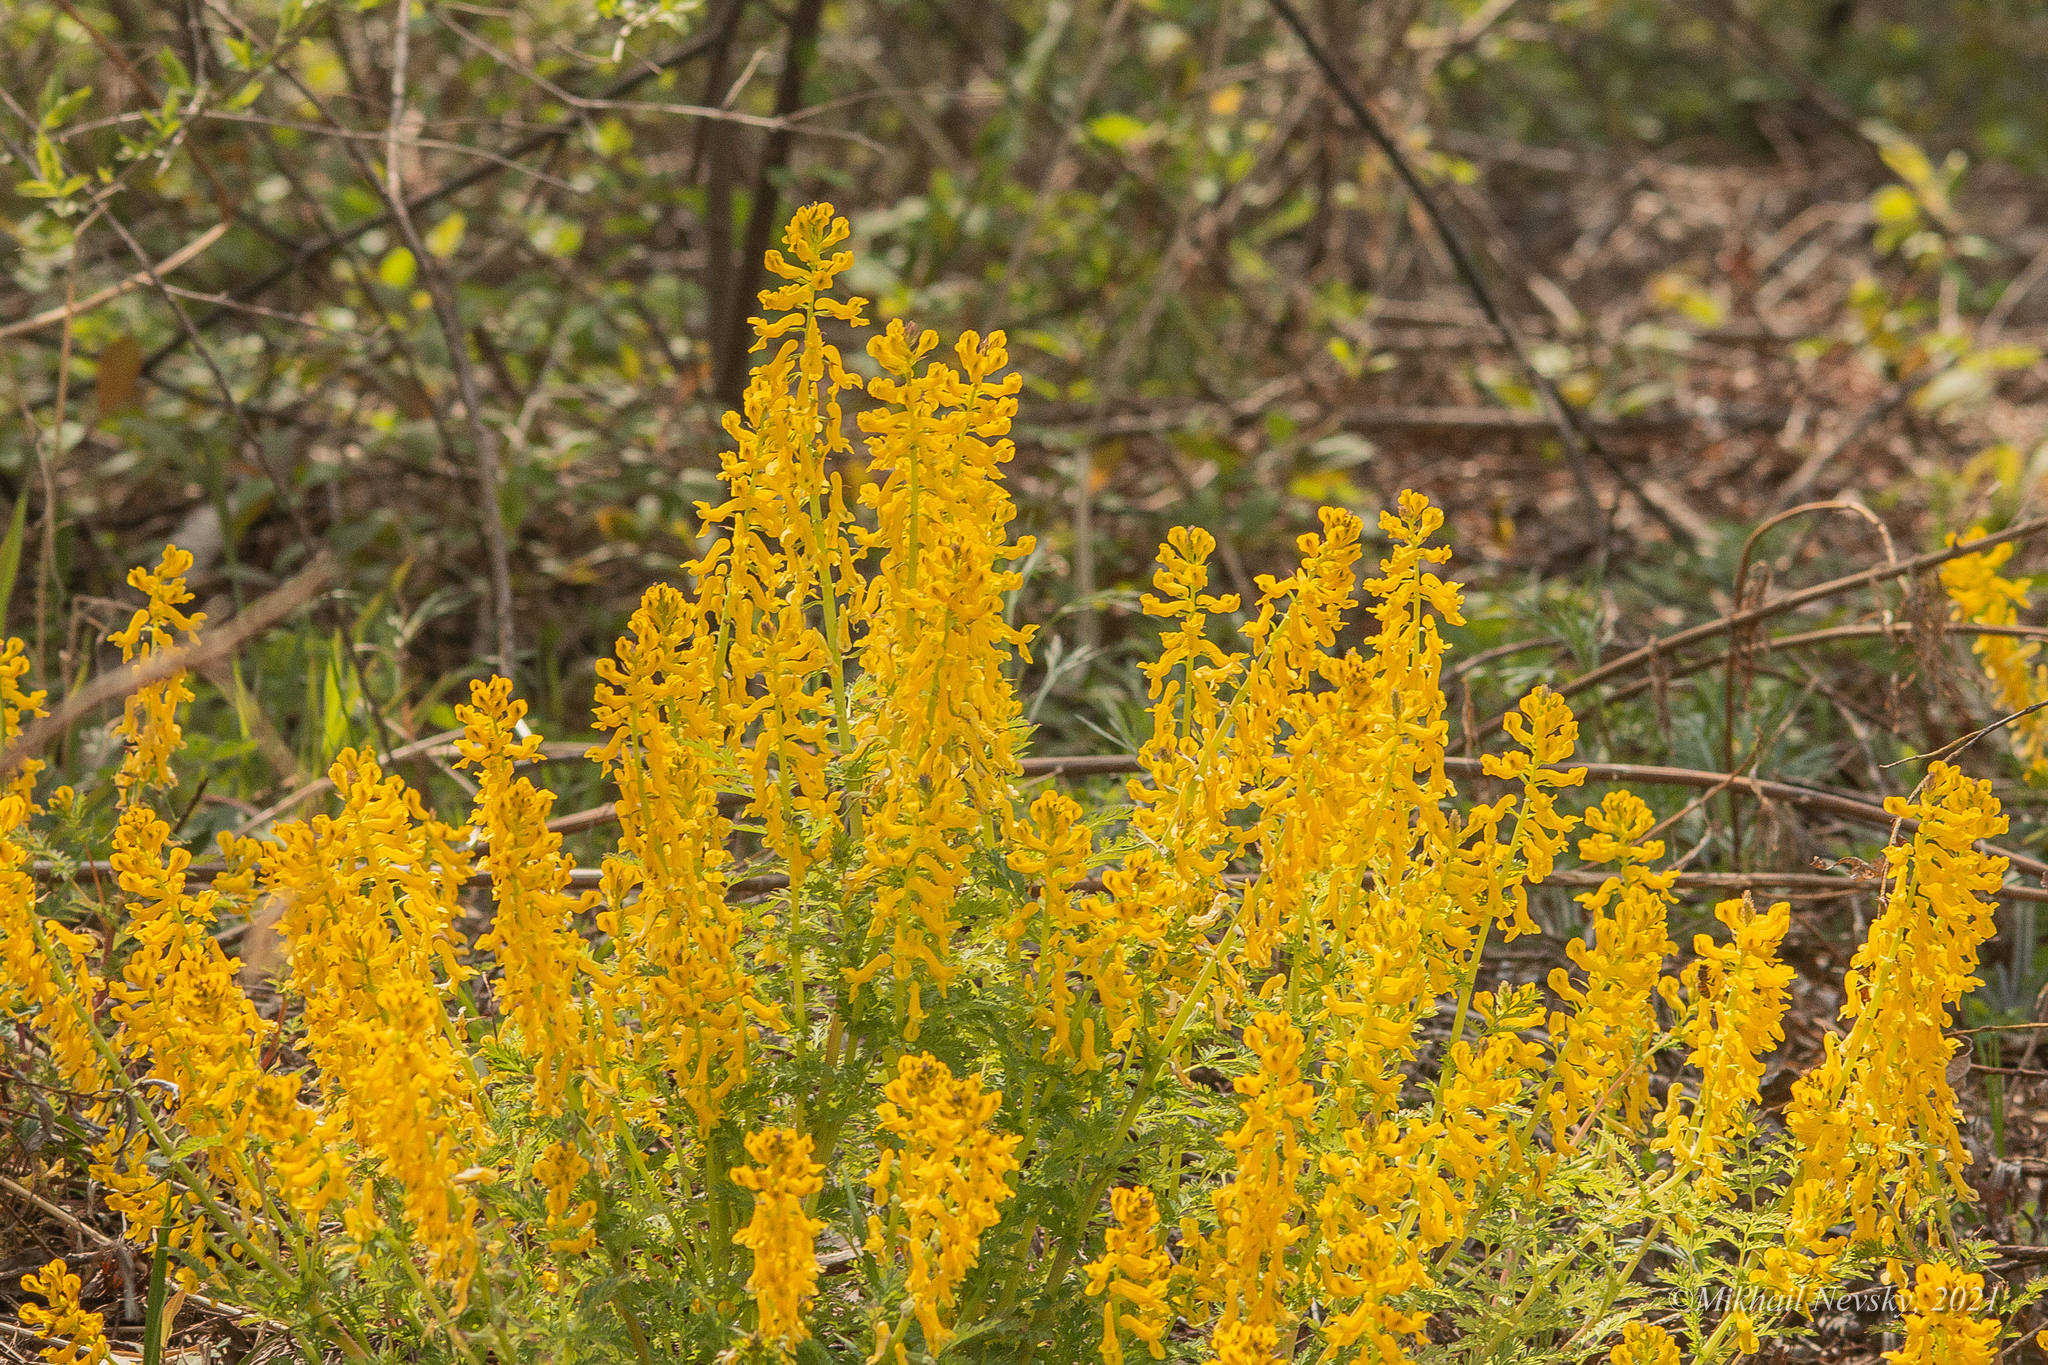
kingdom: Plantae
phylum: Tracheophyta
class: Magnoliopsida
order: Ranunculales
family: Papaveraceae
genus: Corydalis
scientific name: Corydalis speciosa
